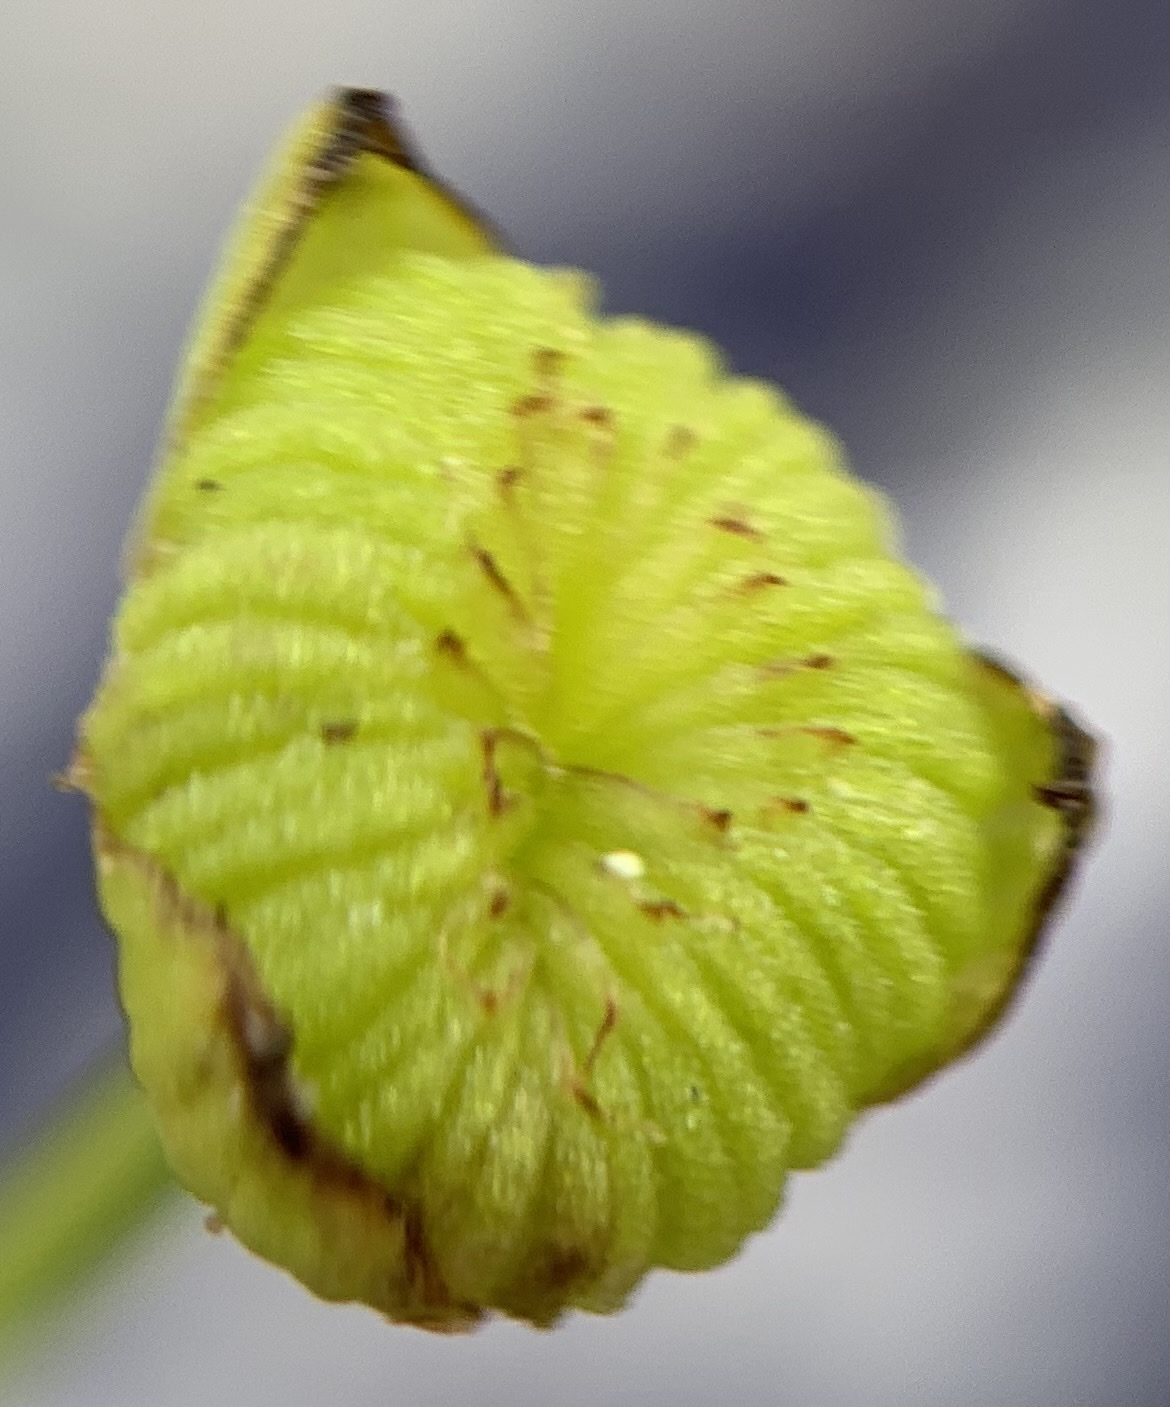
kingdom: Plantae
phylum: Tracheophyta
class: Liliopsida
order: Alismatales
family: Alismataceae
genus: Alisma
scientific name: Alisma triviale
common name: Northern water-plantain
